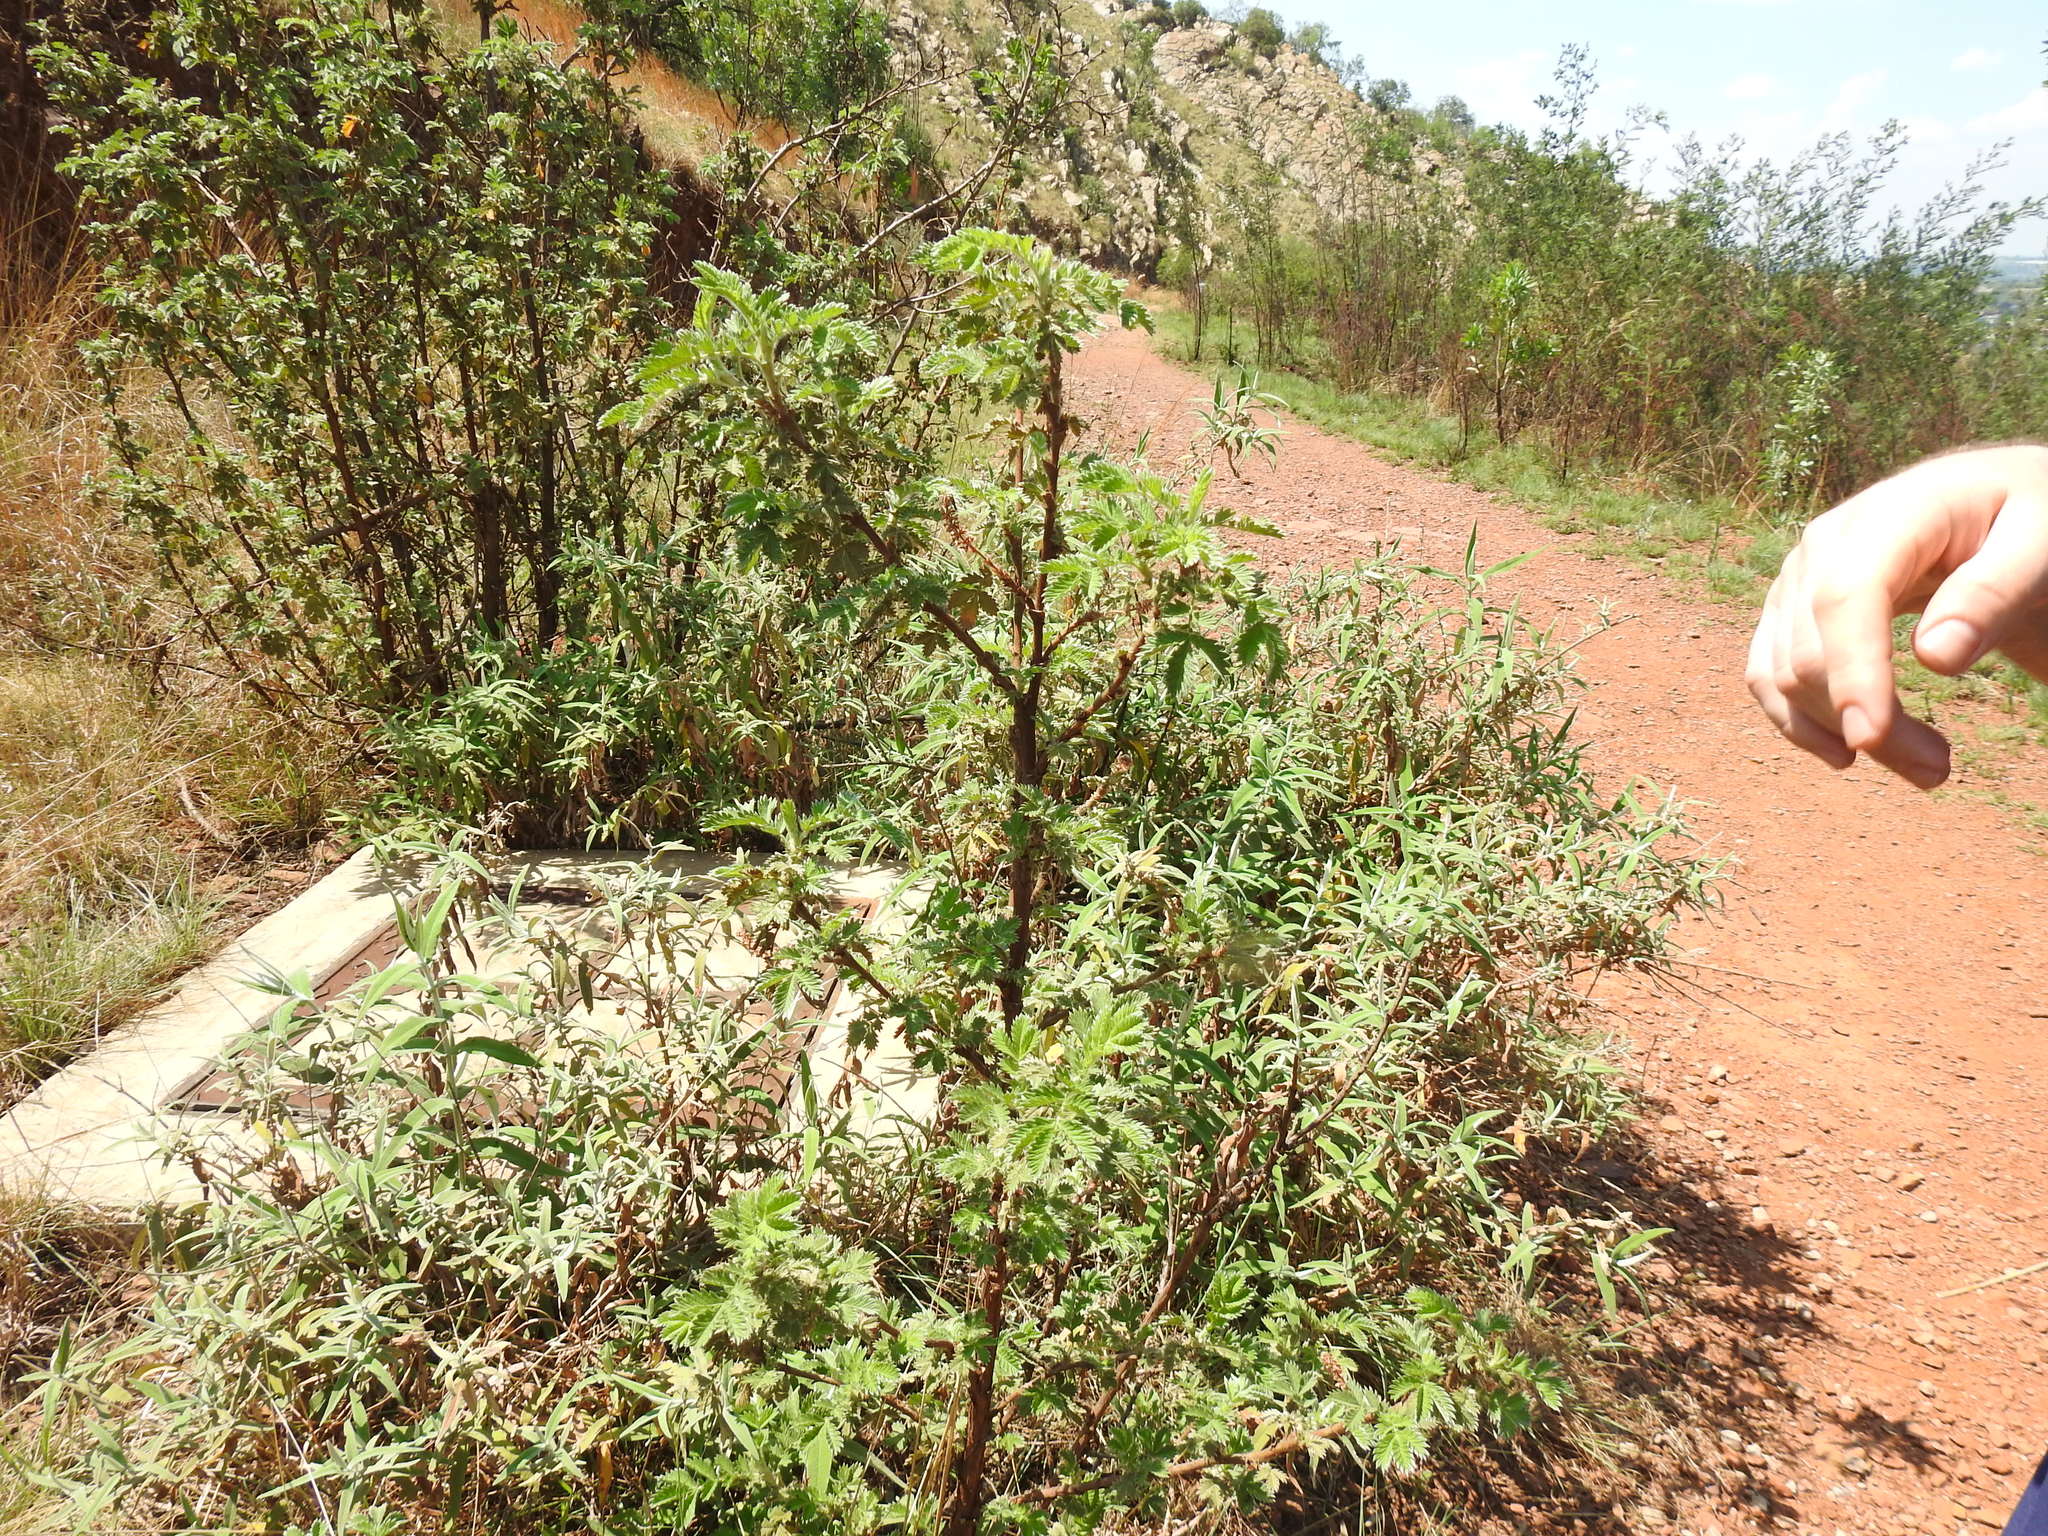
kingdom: Plantae
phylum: Tracheophyta
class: Magnoliopsida
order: Rosales
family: Rosaceae
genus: Leucosidea
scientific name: Leucosidea sericea
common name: Oldwood
